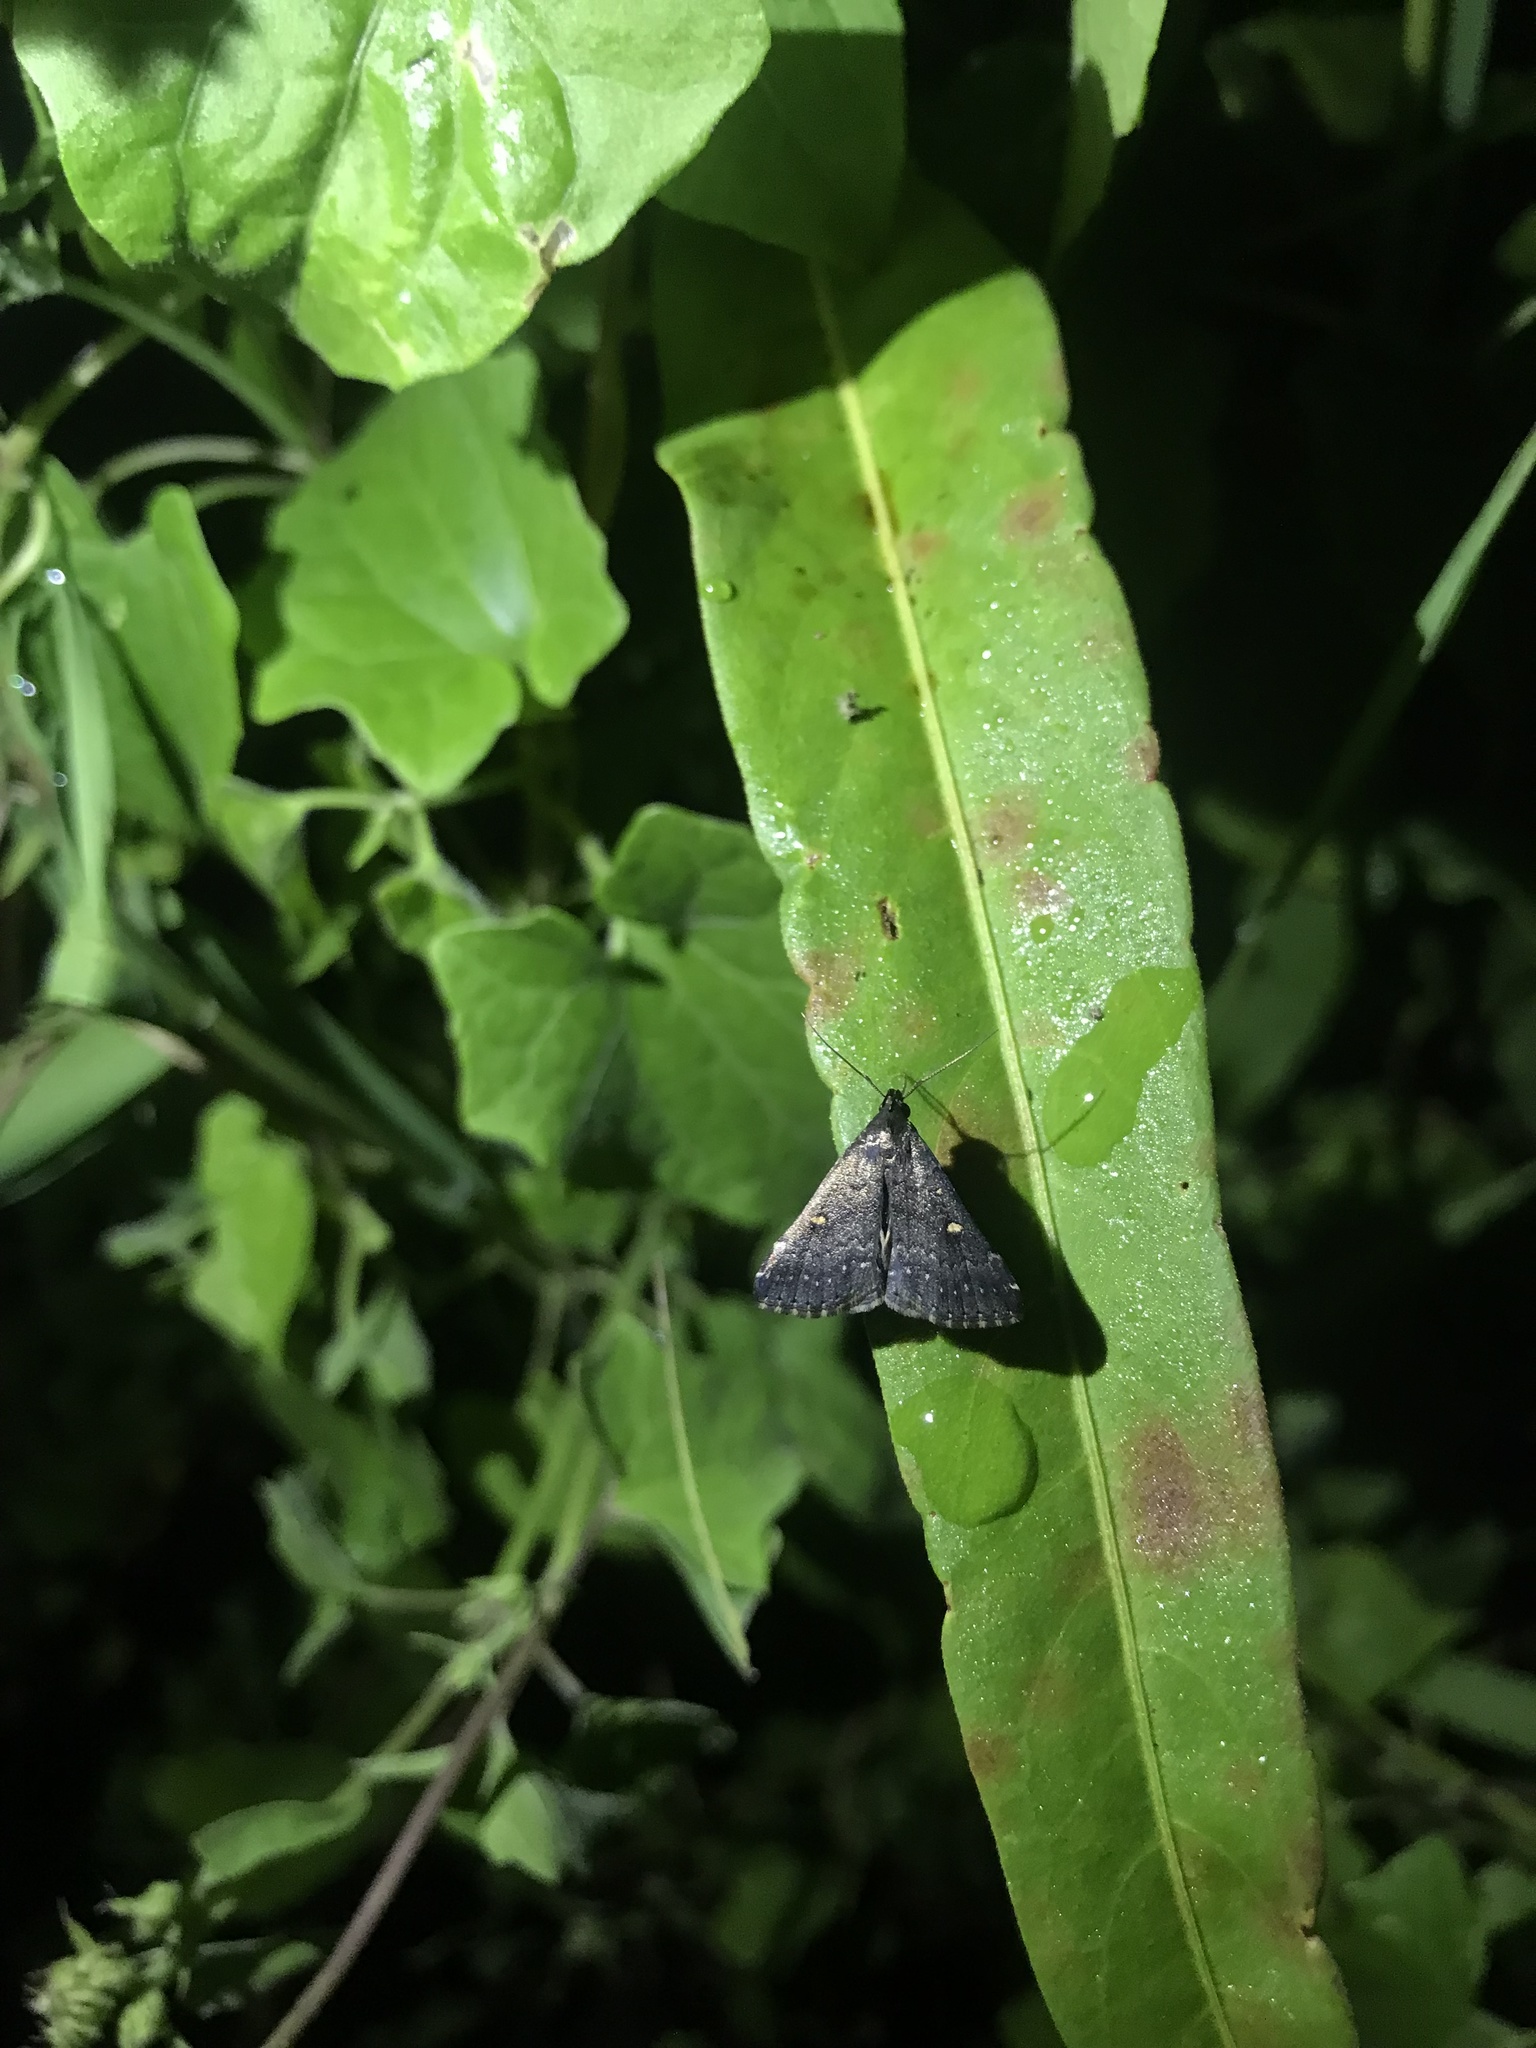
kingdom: Animalia
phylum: Arthropoda
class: Insecta
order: Lepidoptera
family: Erebidae
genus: Tetanolita
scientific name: Tetanolita mynesalis
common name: Smoky tetanolita moth
